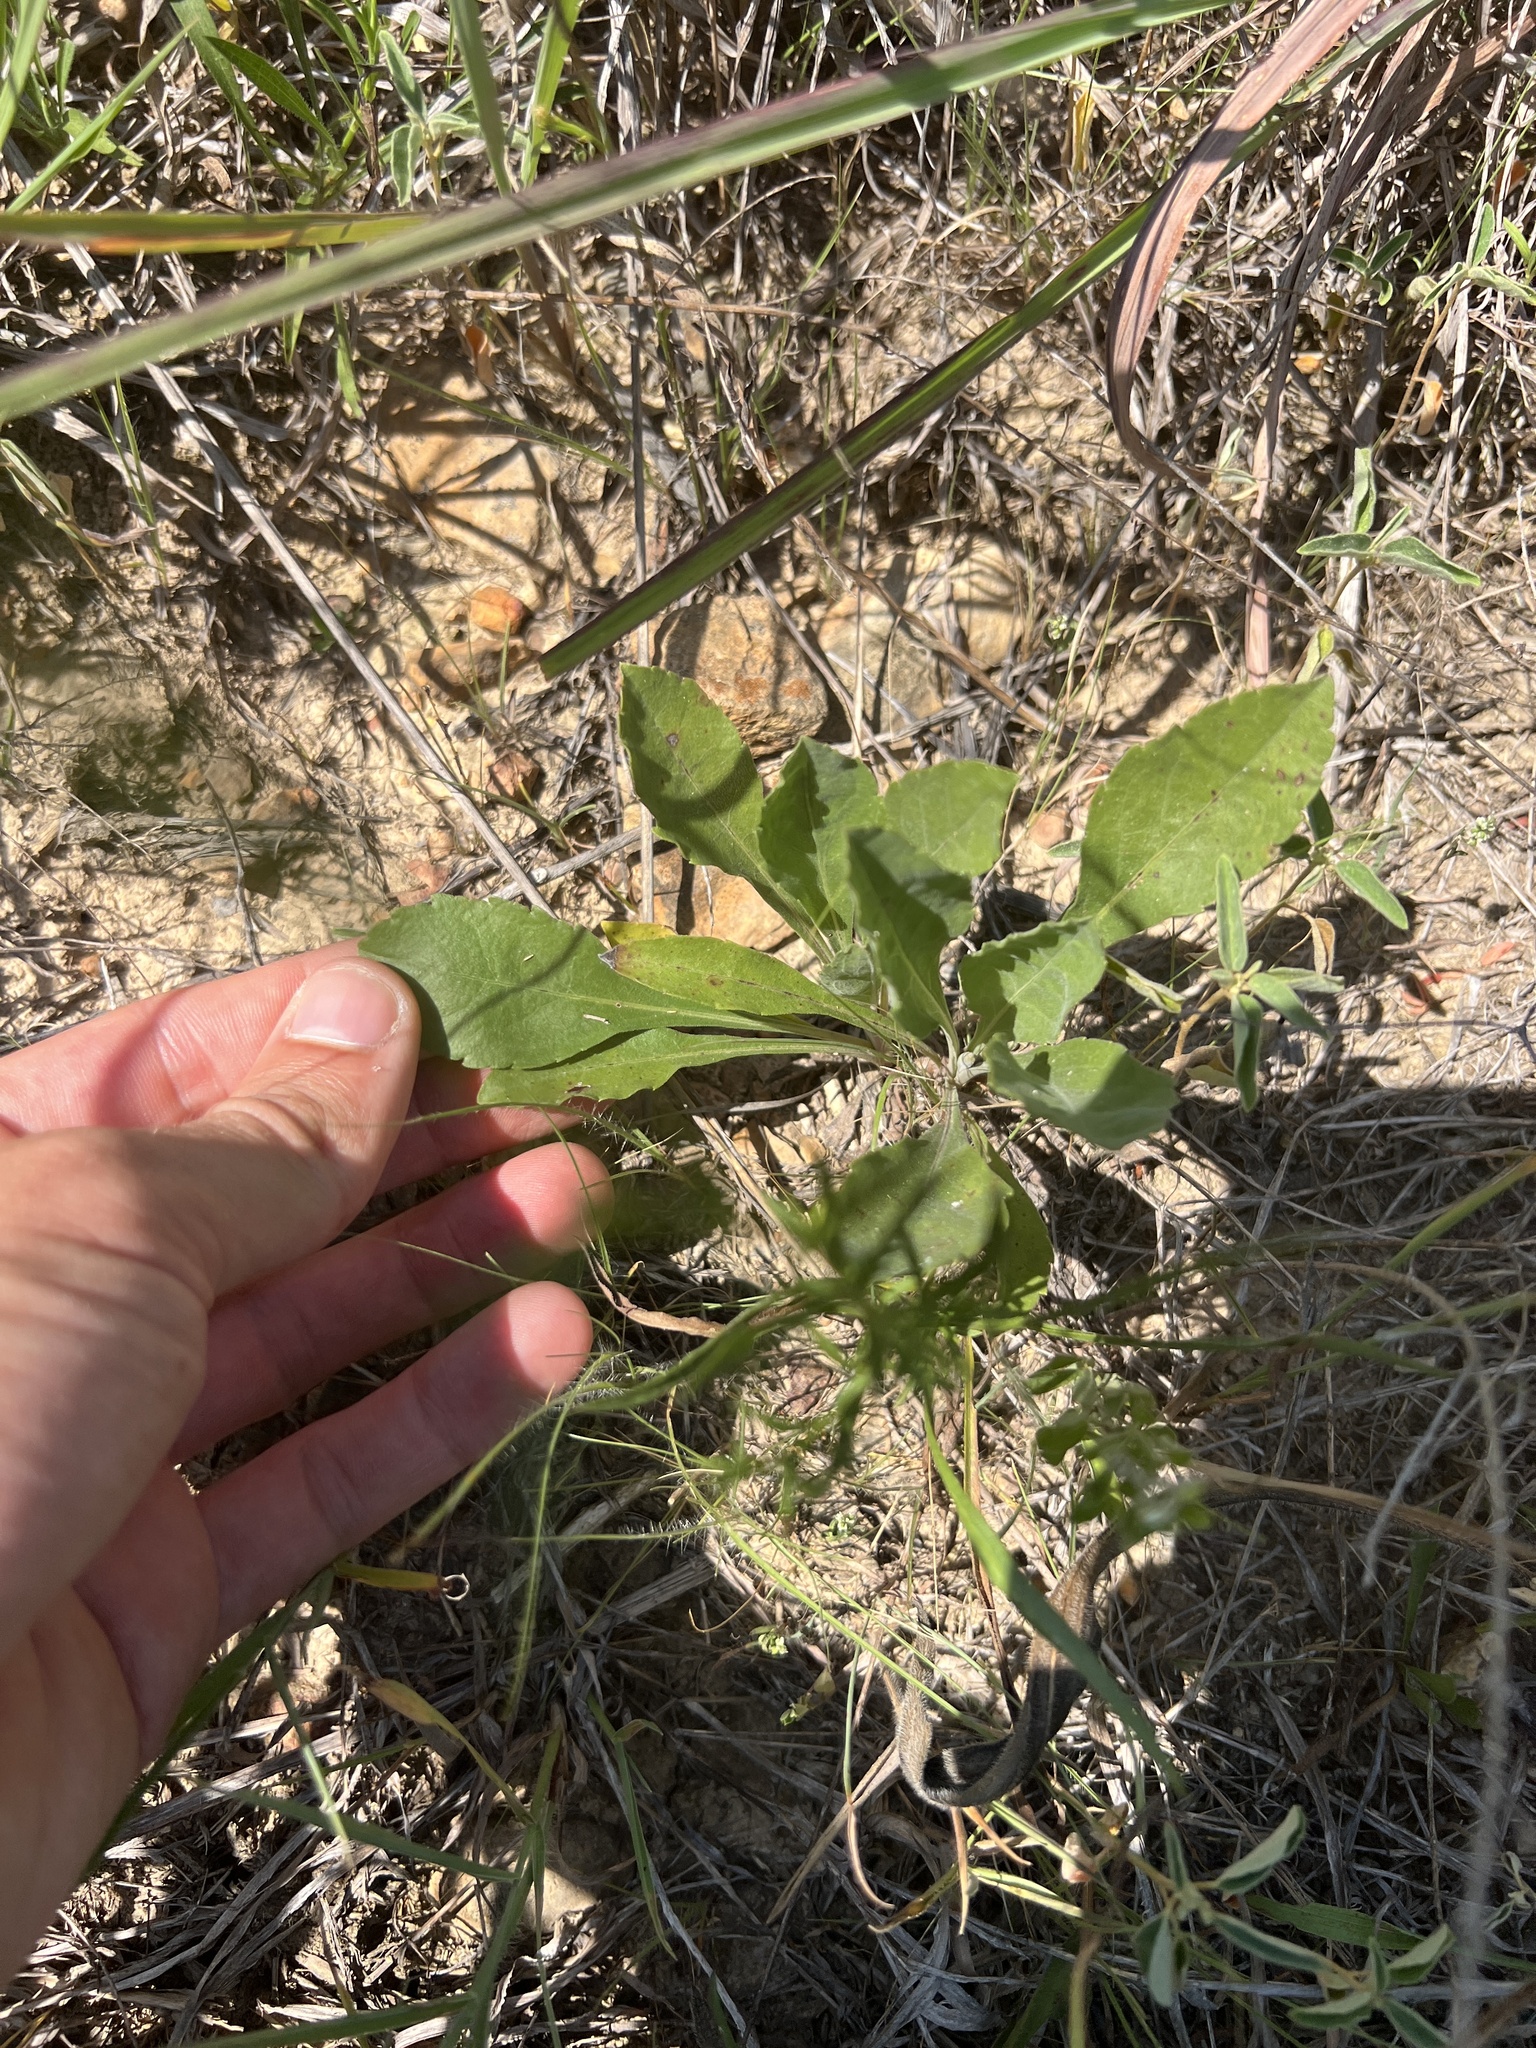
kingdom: Plantae
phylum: Tracheophyta
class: Magnoliopsida
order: Asterales
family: Asteraceae
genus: Solidago
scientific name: Solidago radula
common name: Western rough goldenrod
